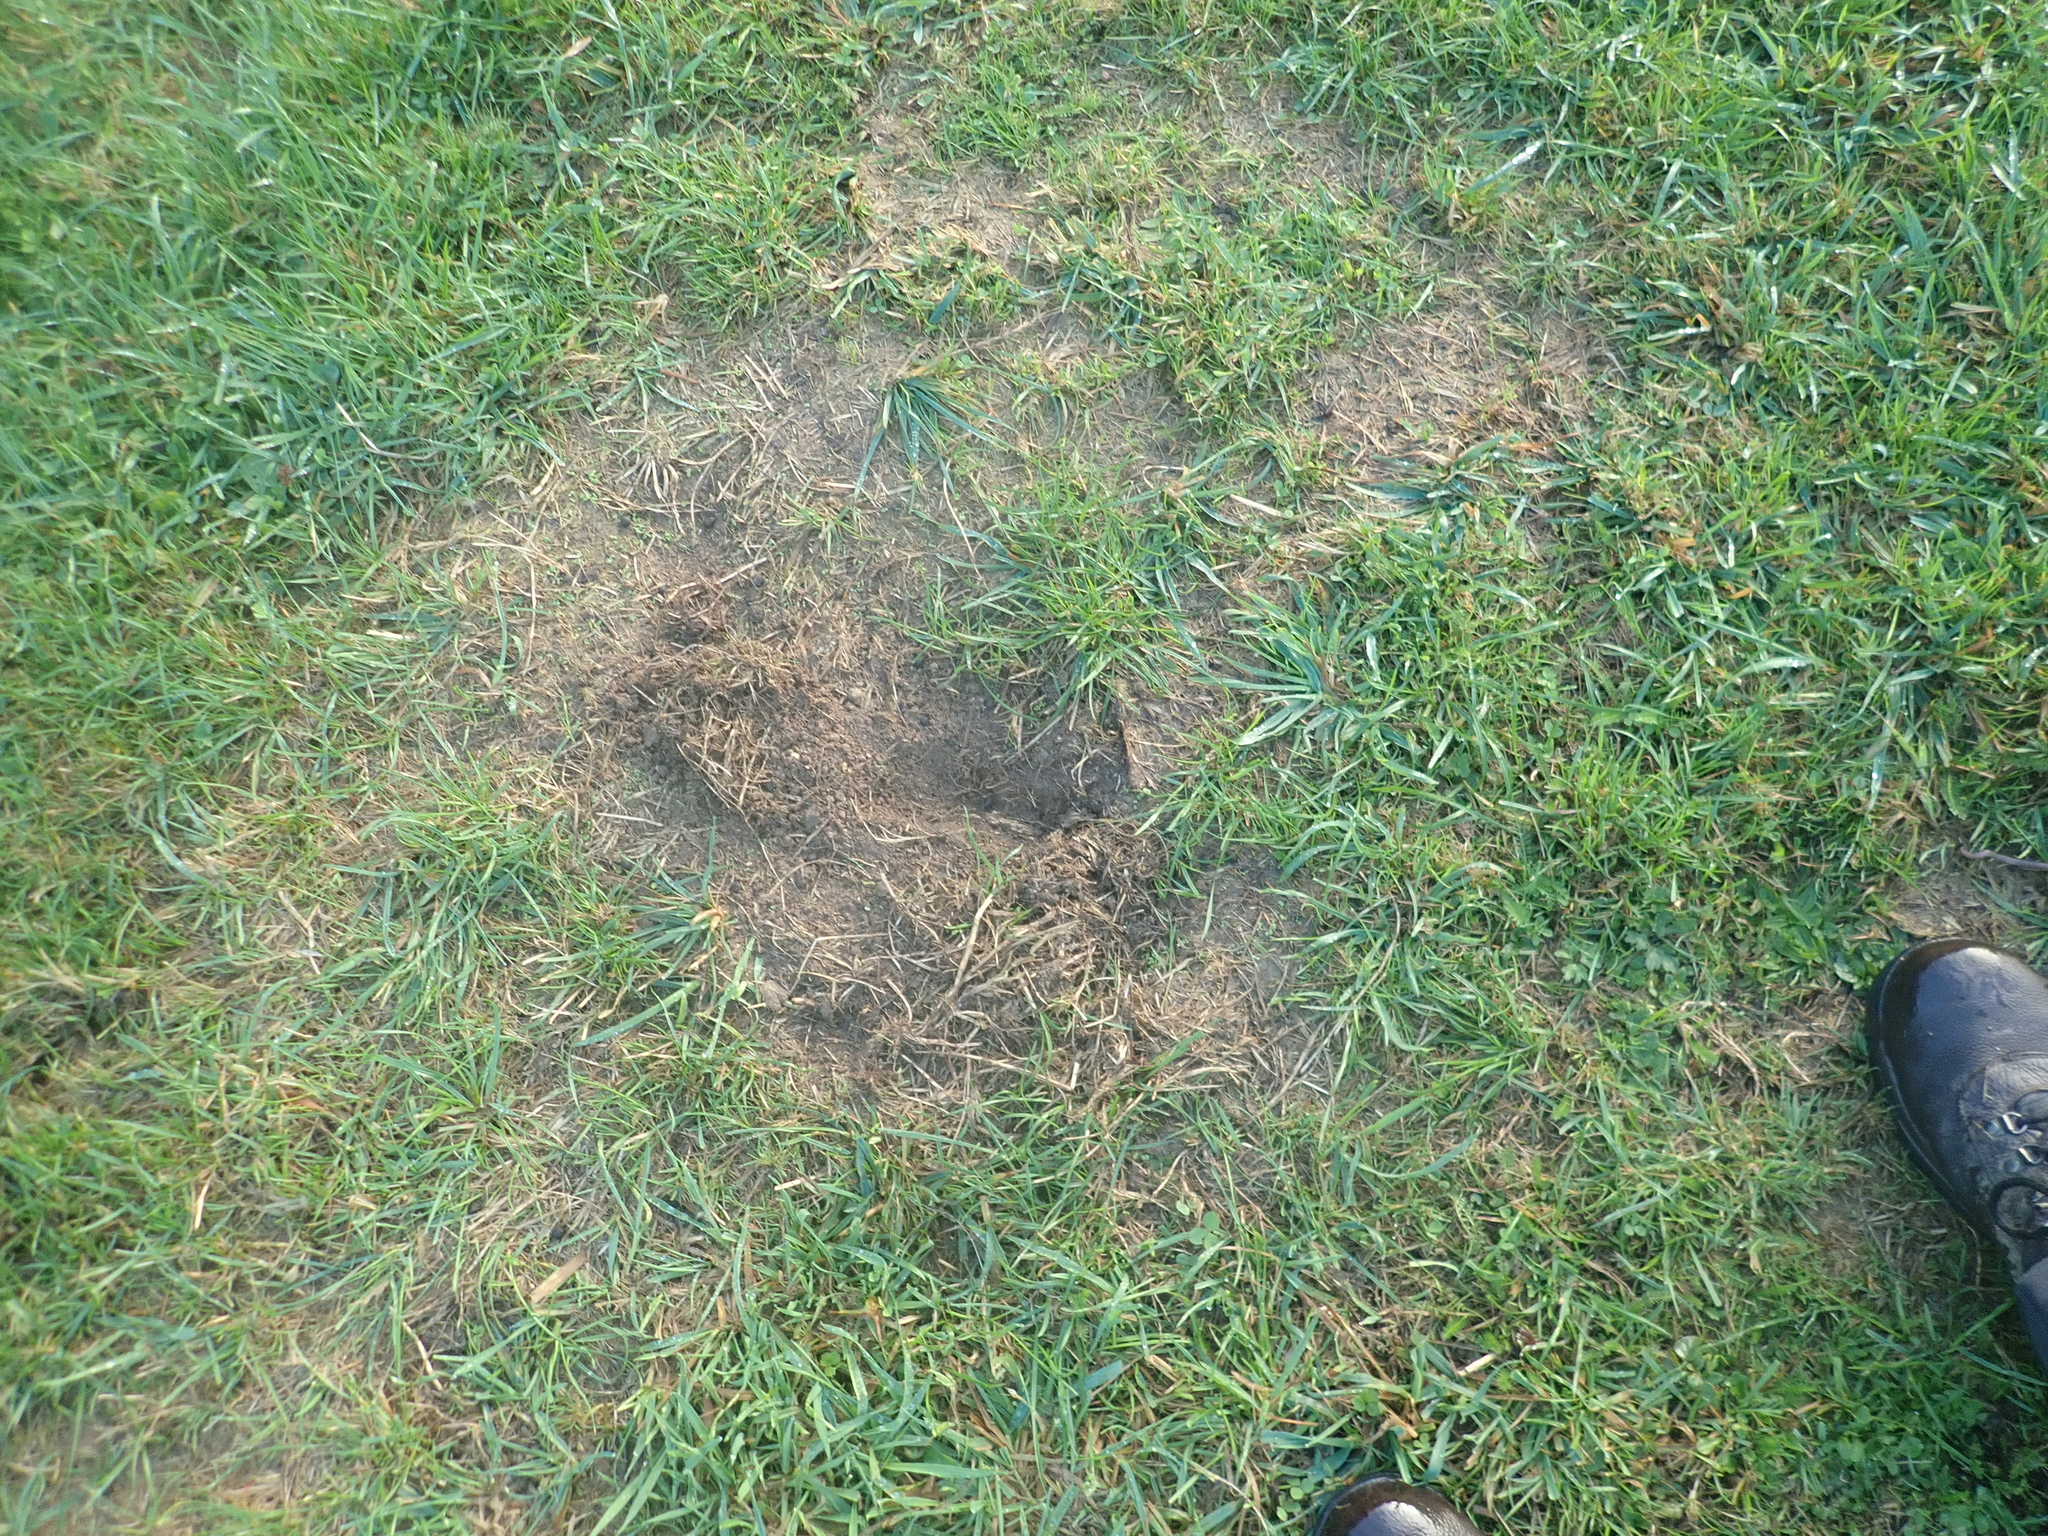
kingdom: Animalia
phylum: Chordata
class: Mammalia
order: Lagomorpha
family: Leporidae
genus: Oryctolagus
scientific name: Oryctolagus cuniculus
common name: European rabbit
